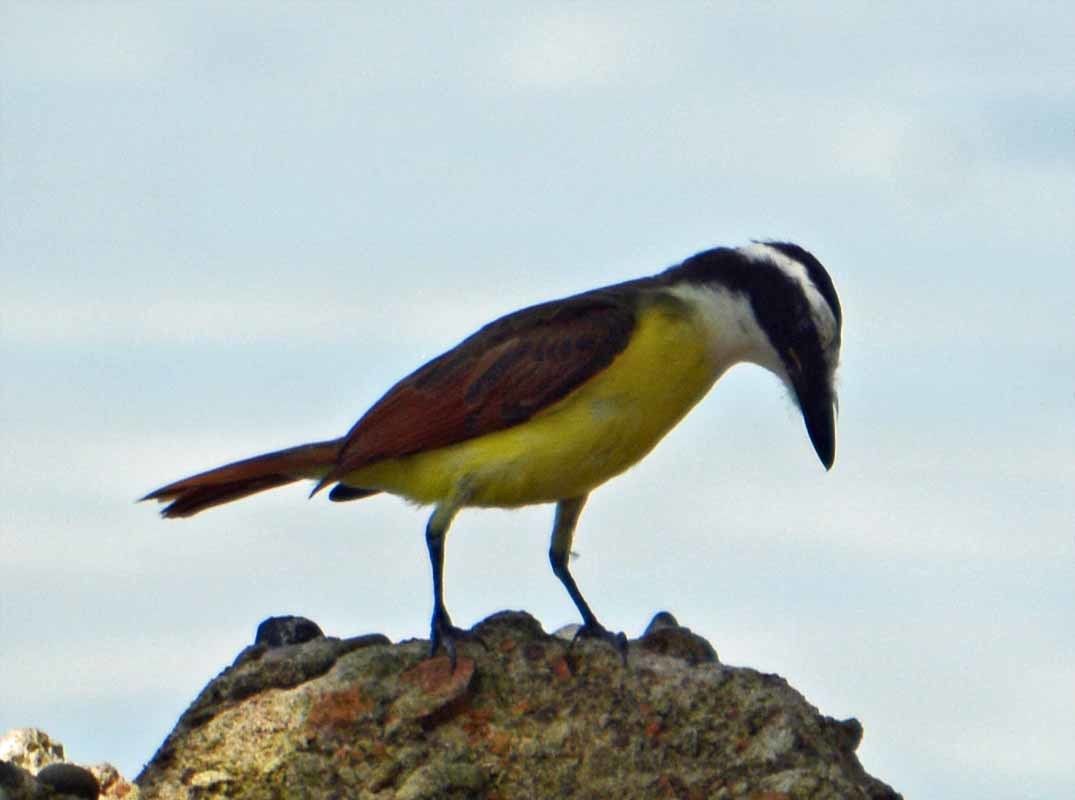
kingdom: Animalia
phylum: Chordata
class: Aves
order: Passeriformes
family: Tyrannidae
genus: Pitangus
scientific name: Pitangus sulphuratus
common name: Great kiskadee
